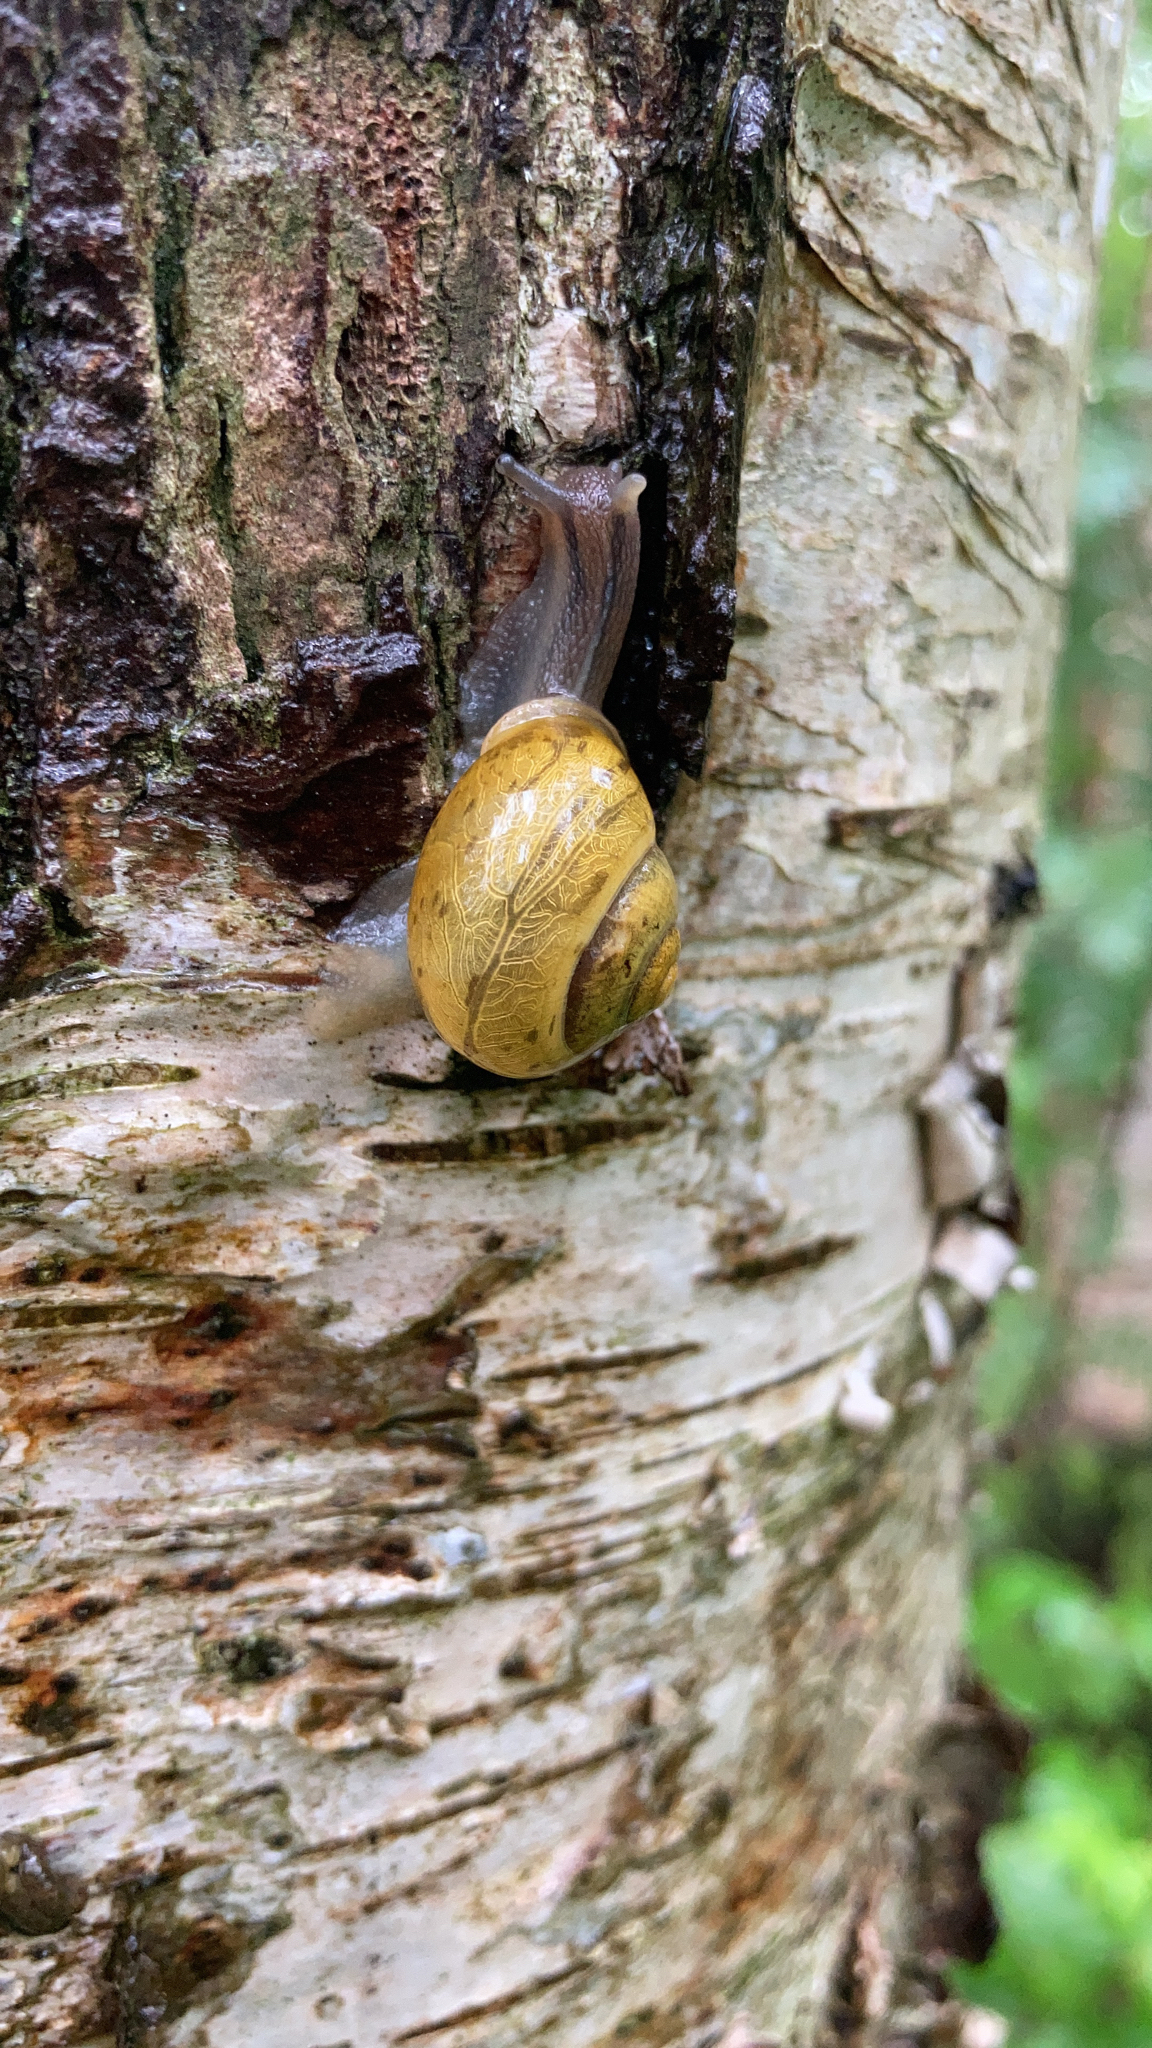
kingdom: Animalia
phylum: Mollusca
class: Gastropoda
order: Stylommatophora
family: Helicidae
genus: Cepaea
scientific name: Cepaea hortensis
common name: White-lip gardensnail
